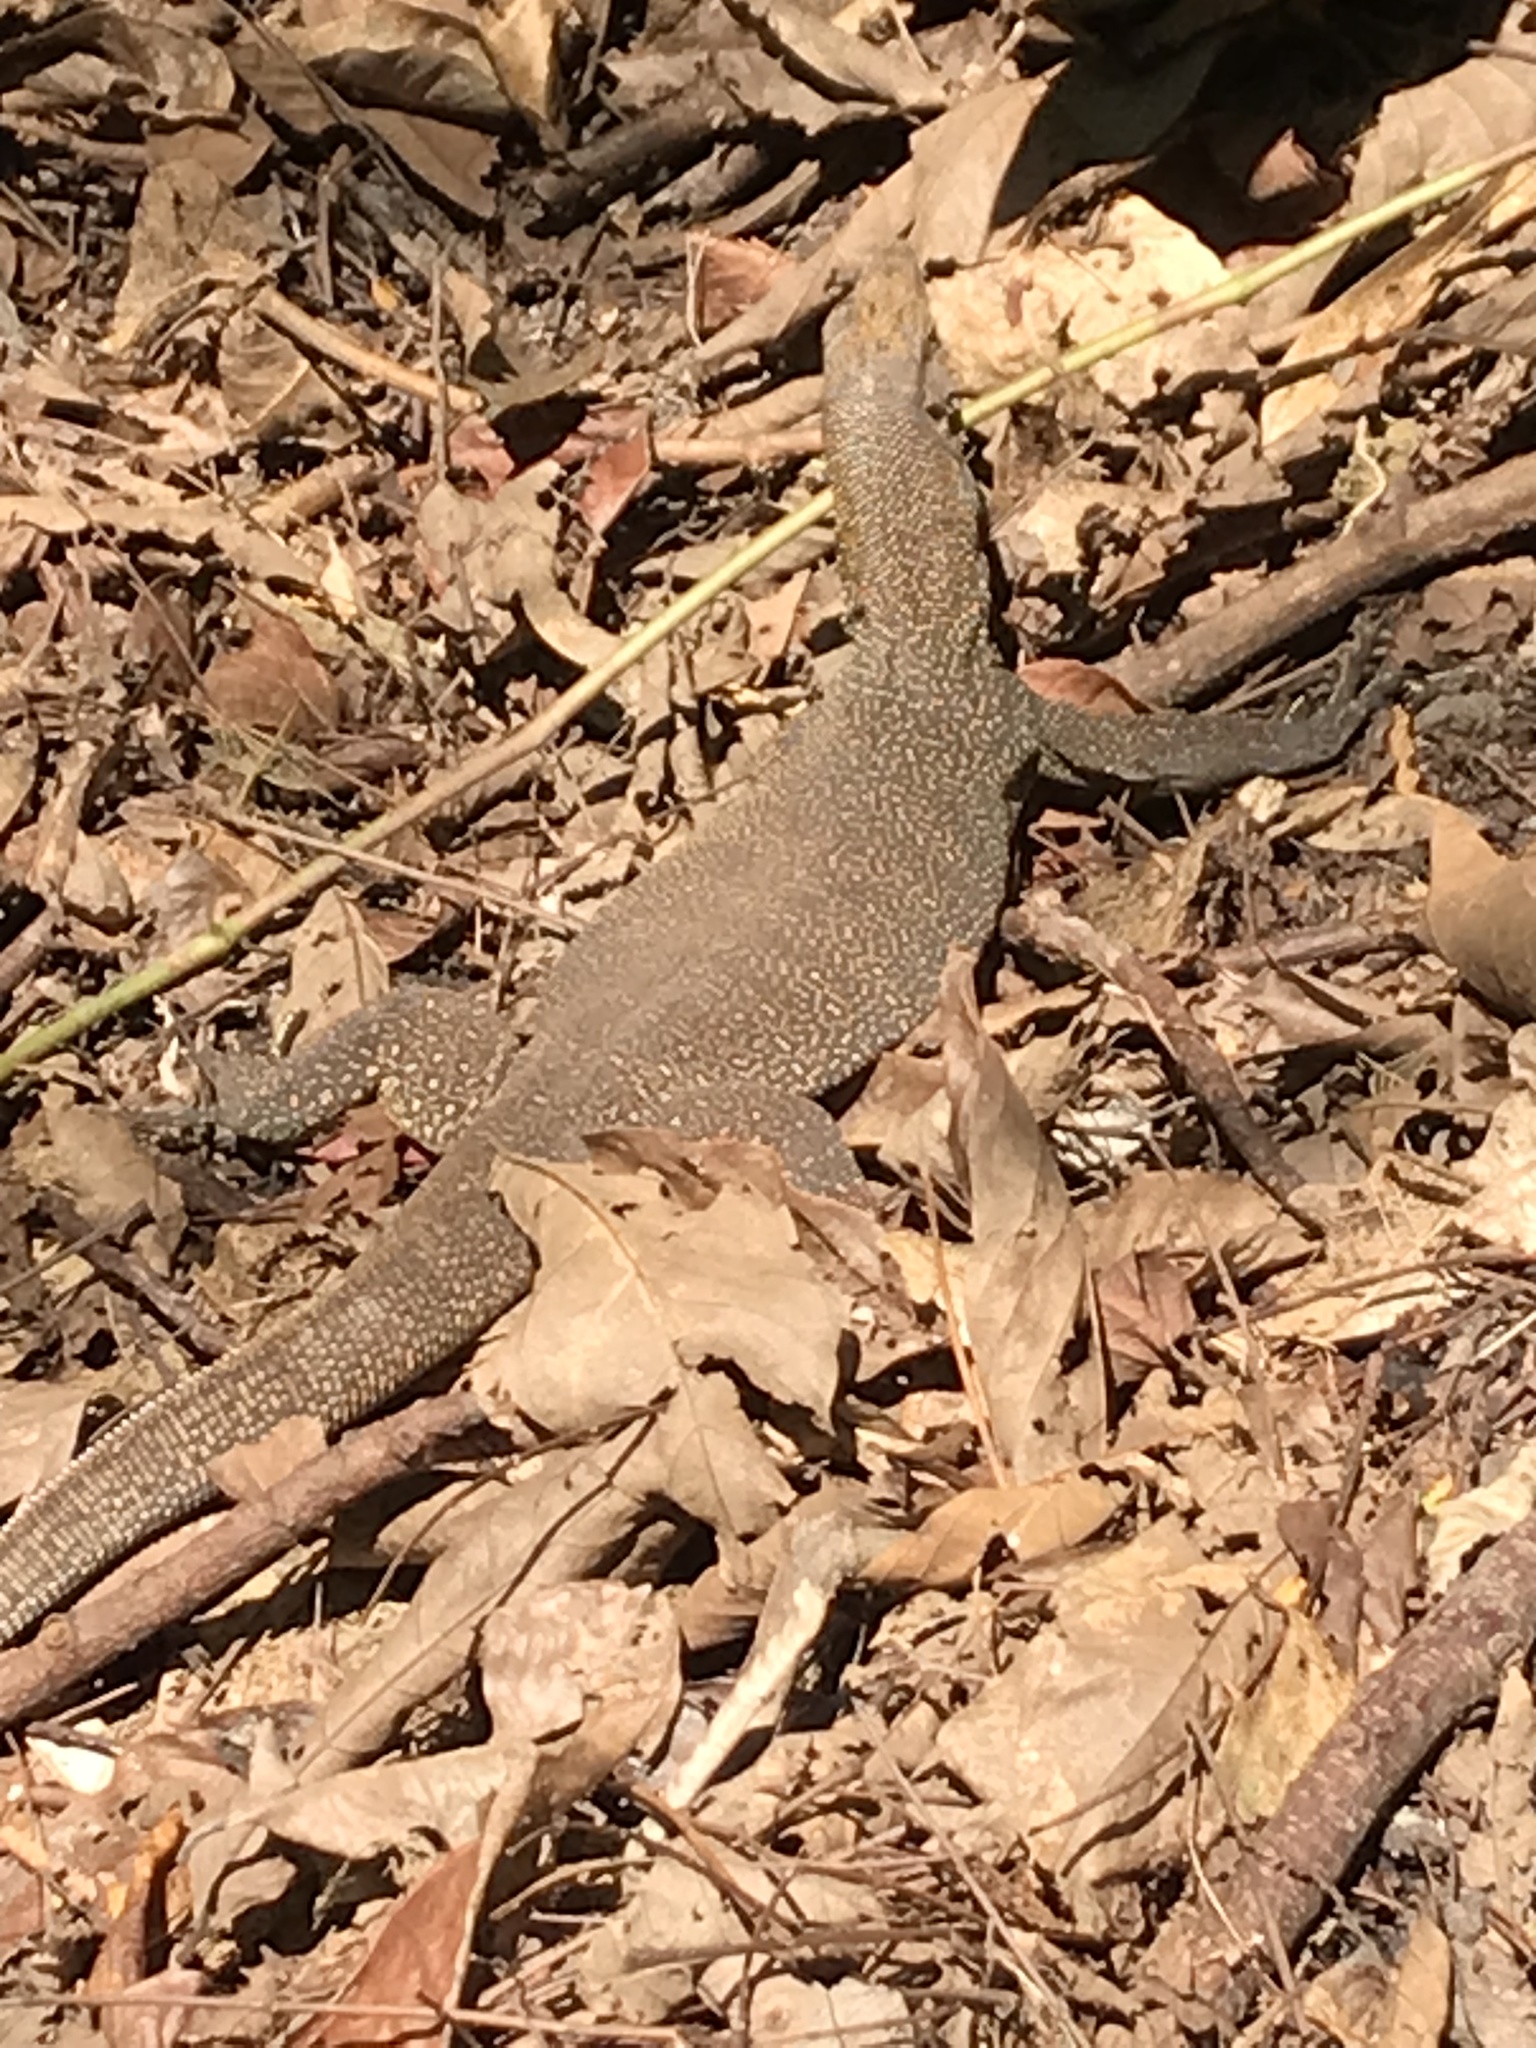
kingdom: Animalia
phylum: Chordata
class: Squamata
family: Varanidae
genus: Varanus
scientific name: Varanus nebulosus
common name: Clouded monitor
